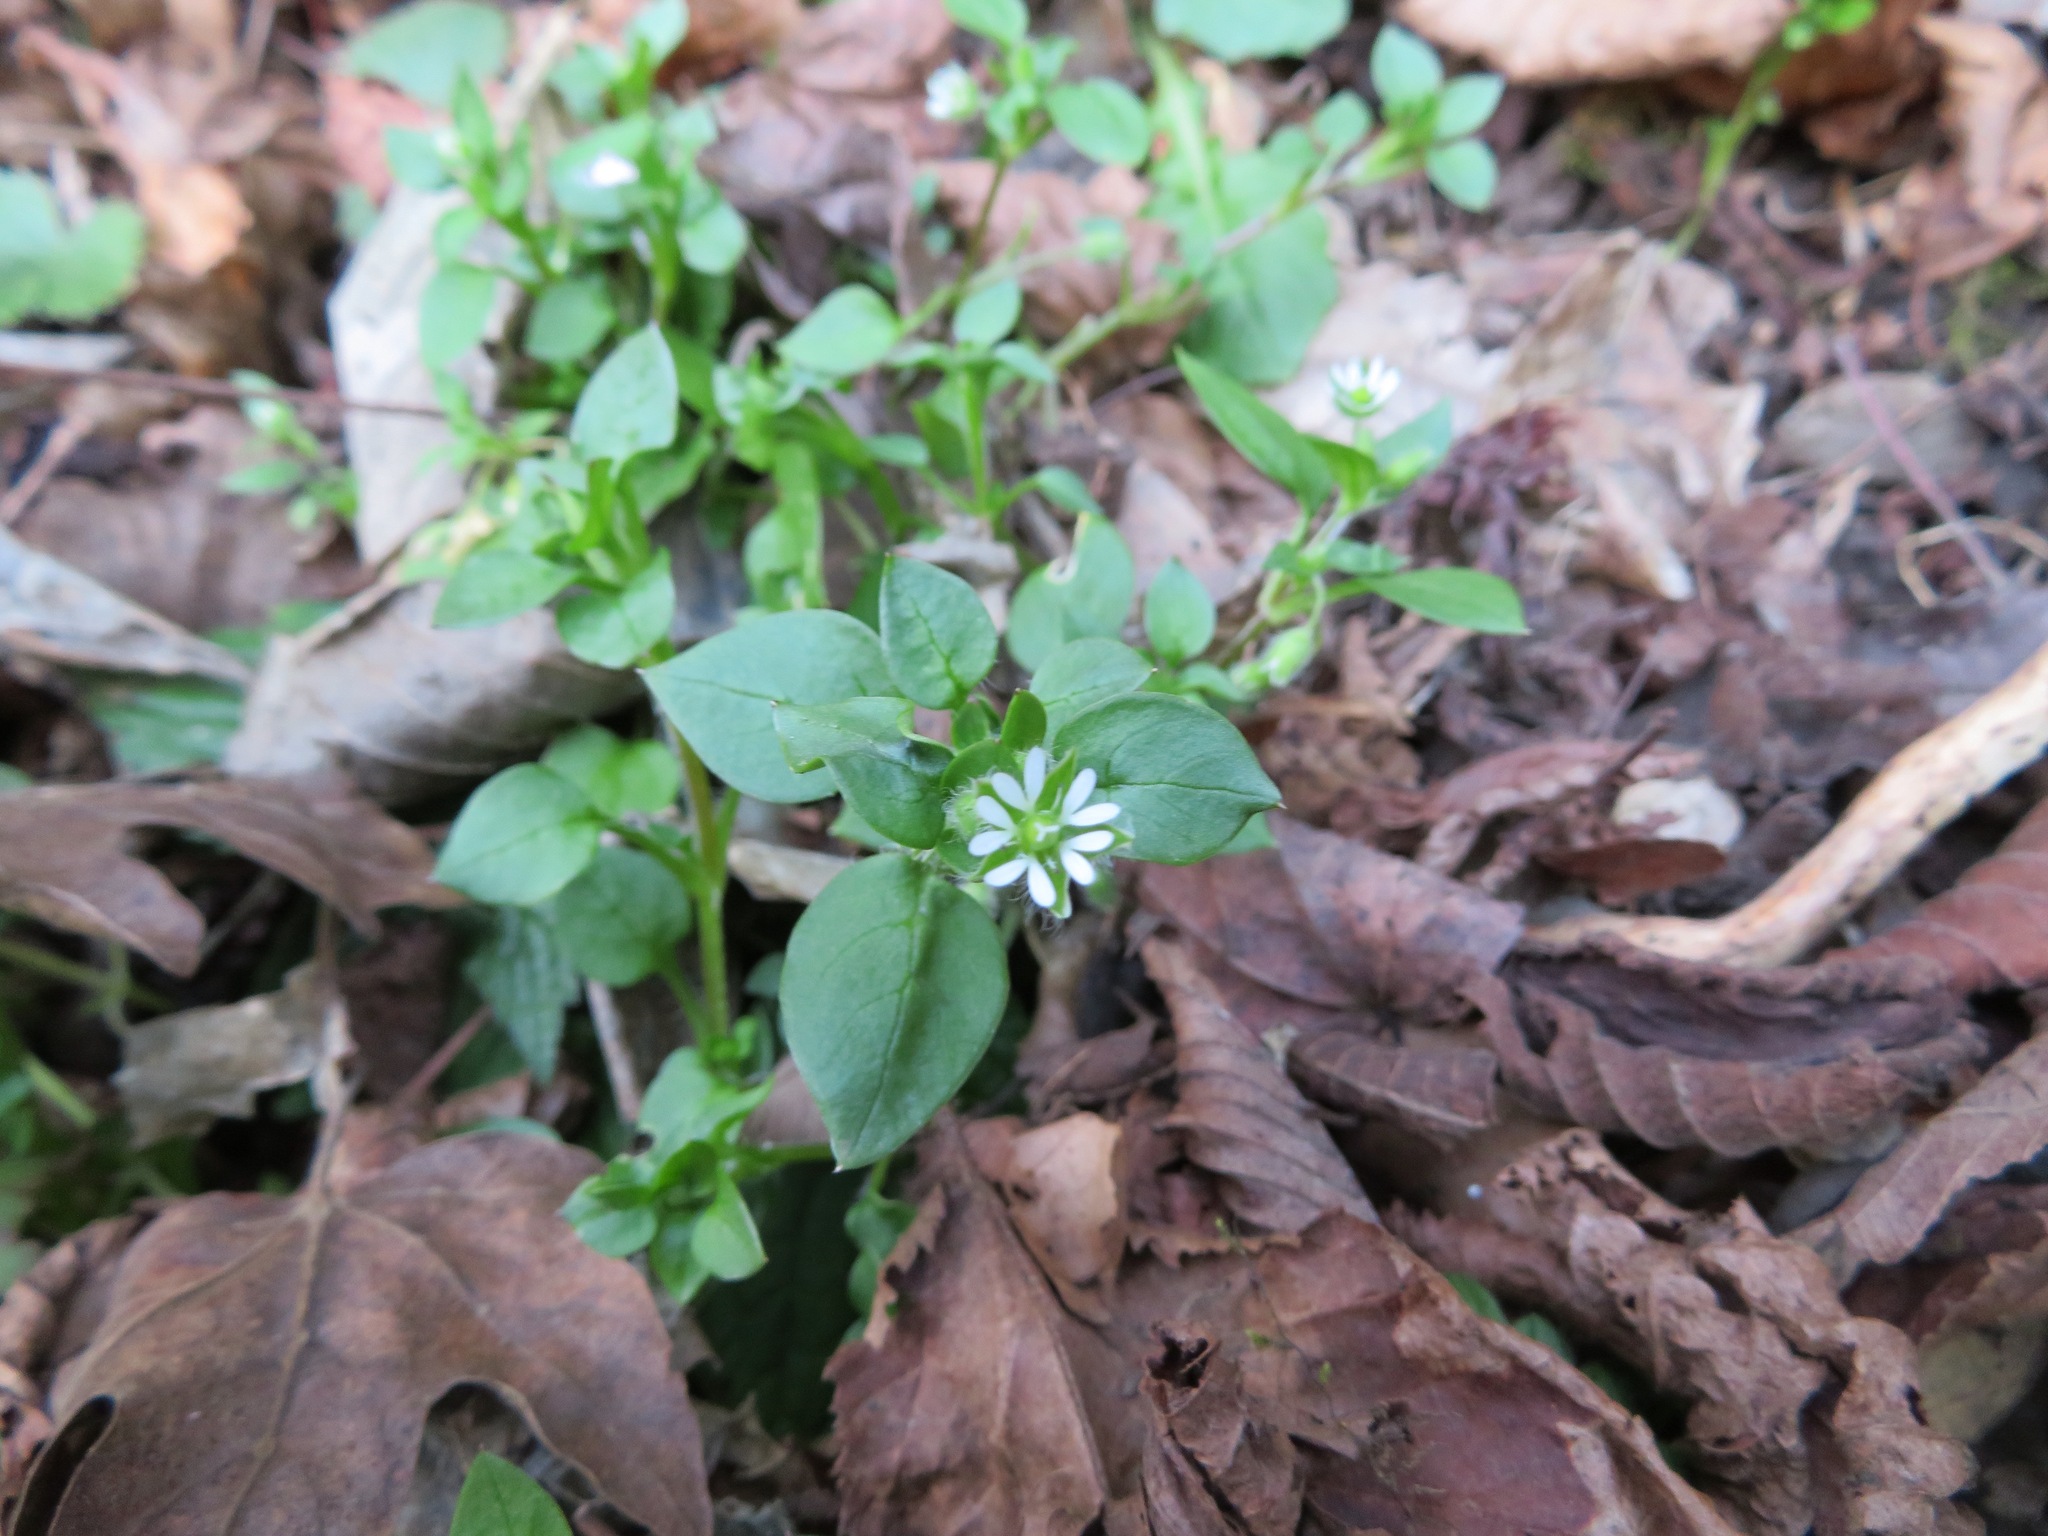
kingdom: Plantae
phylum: Tracheophyta
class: Magnoliopsida
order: Caryophyllales
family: Caryophyllaceae
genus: Stellaria
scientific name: Stellaria media
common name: Common chickweed
